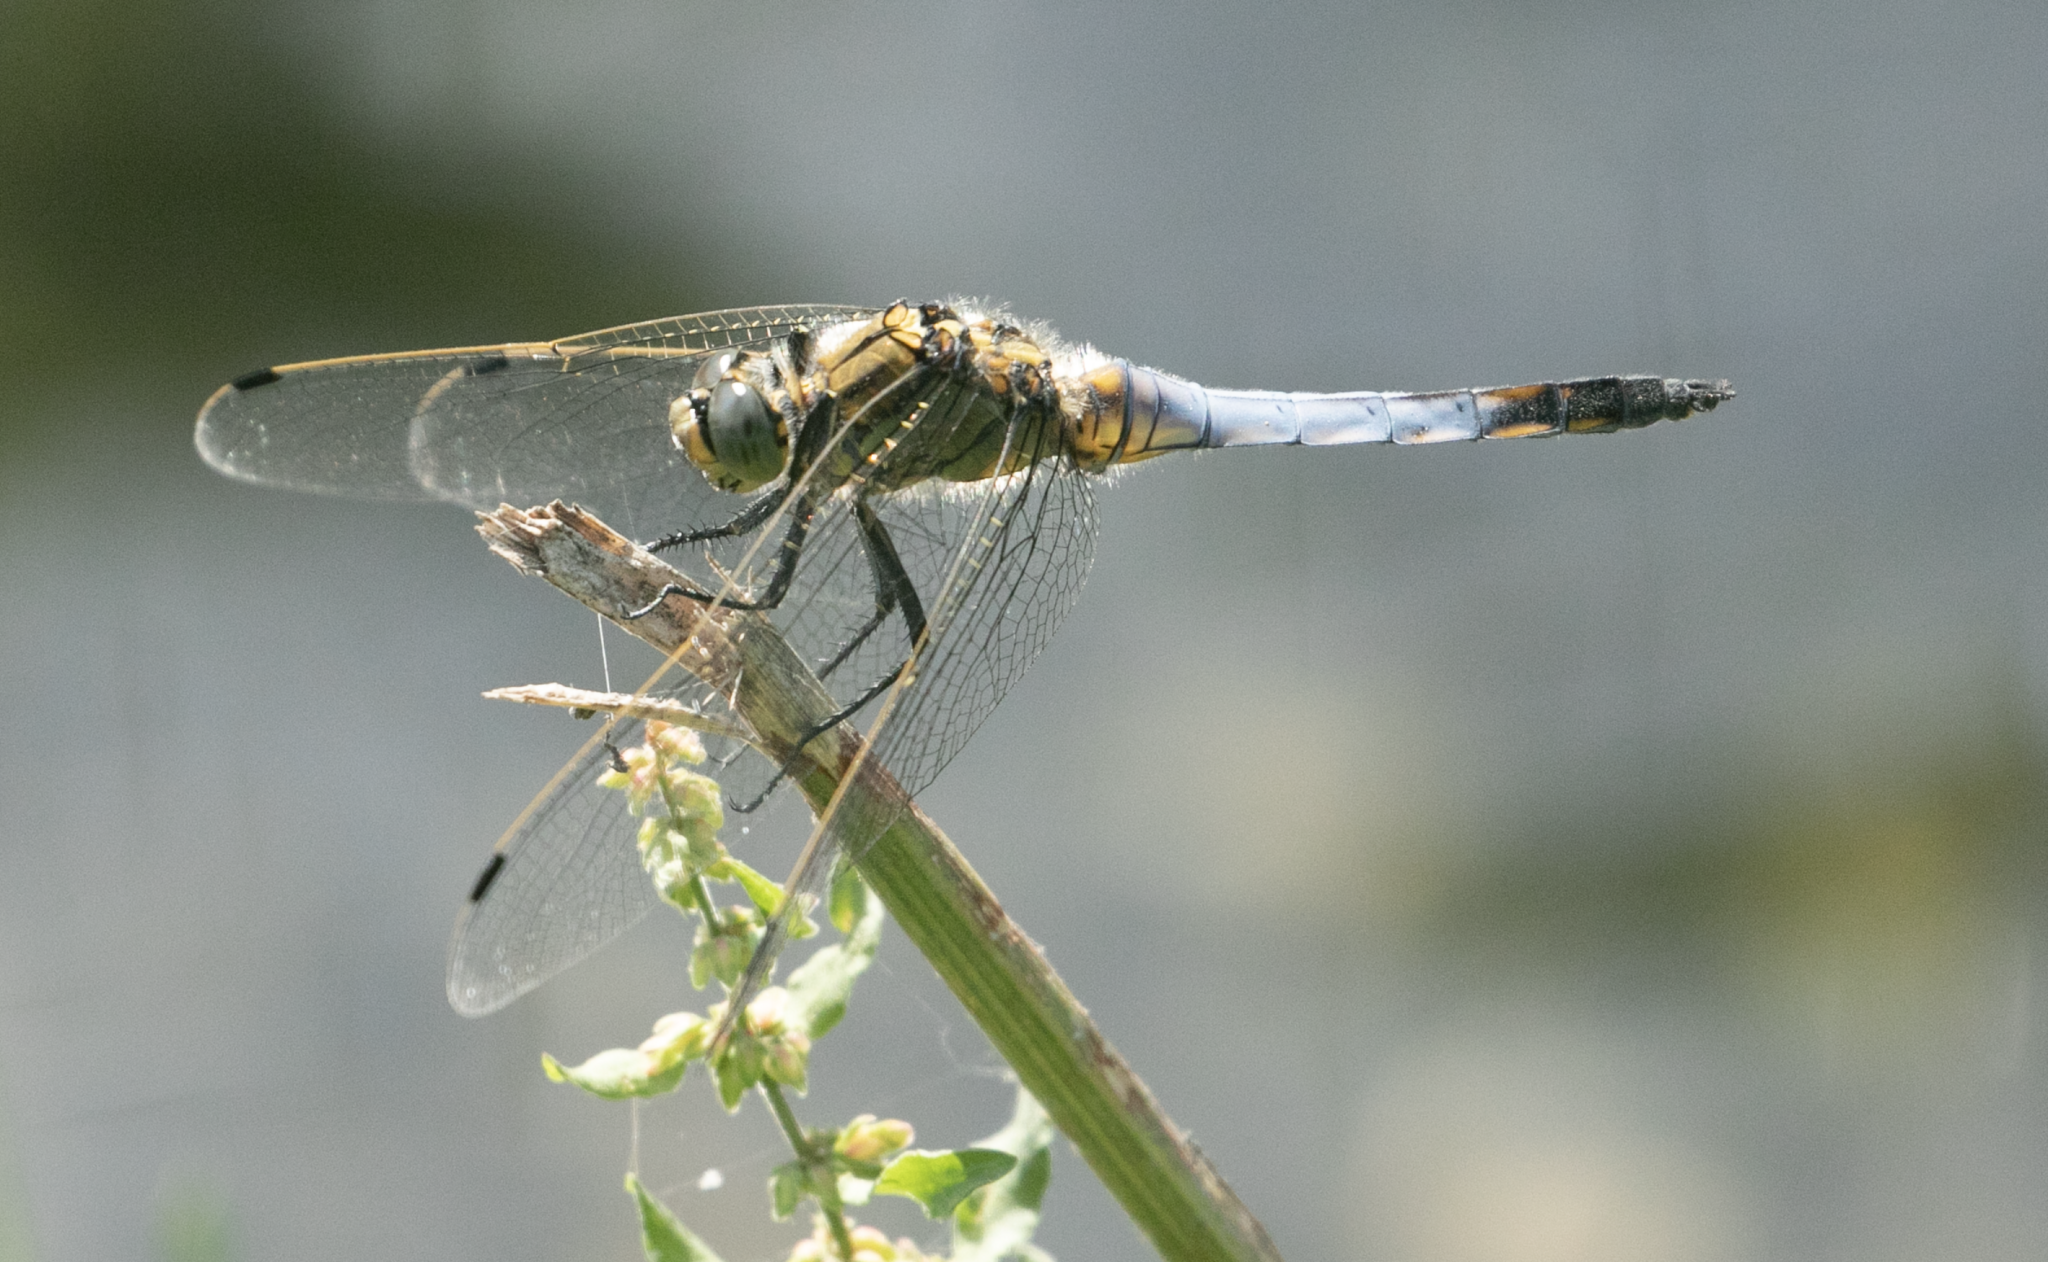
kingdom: Animalia
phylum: Arthropoda
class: Insecta
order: Odonata
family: Libellulidae
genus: Orthetrum
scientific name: Orthetrum cancellatum
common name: Black-tailed skimmer
